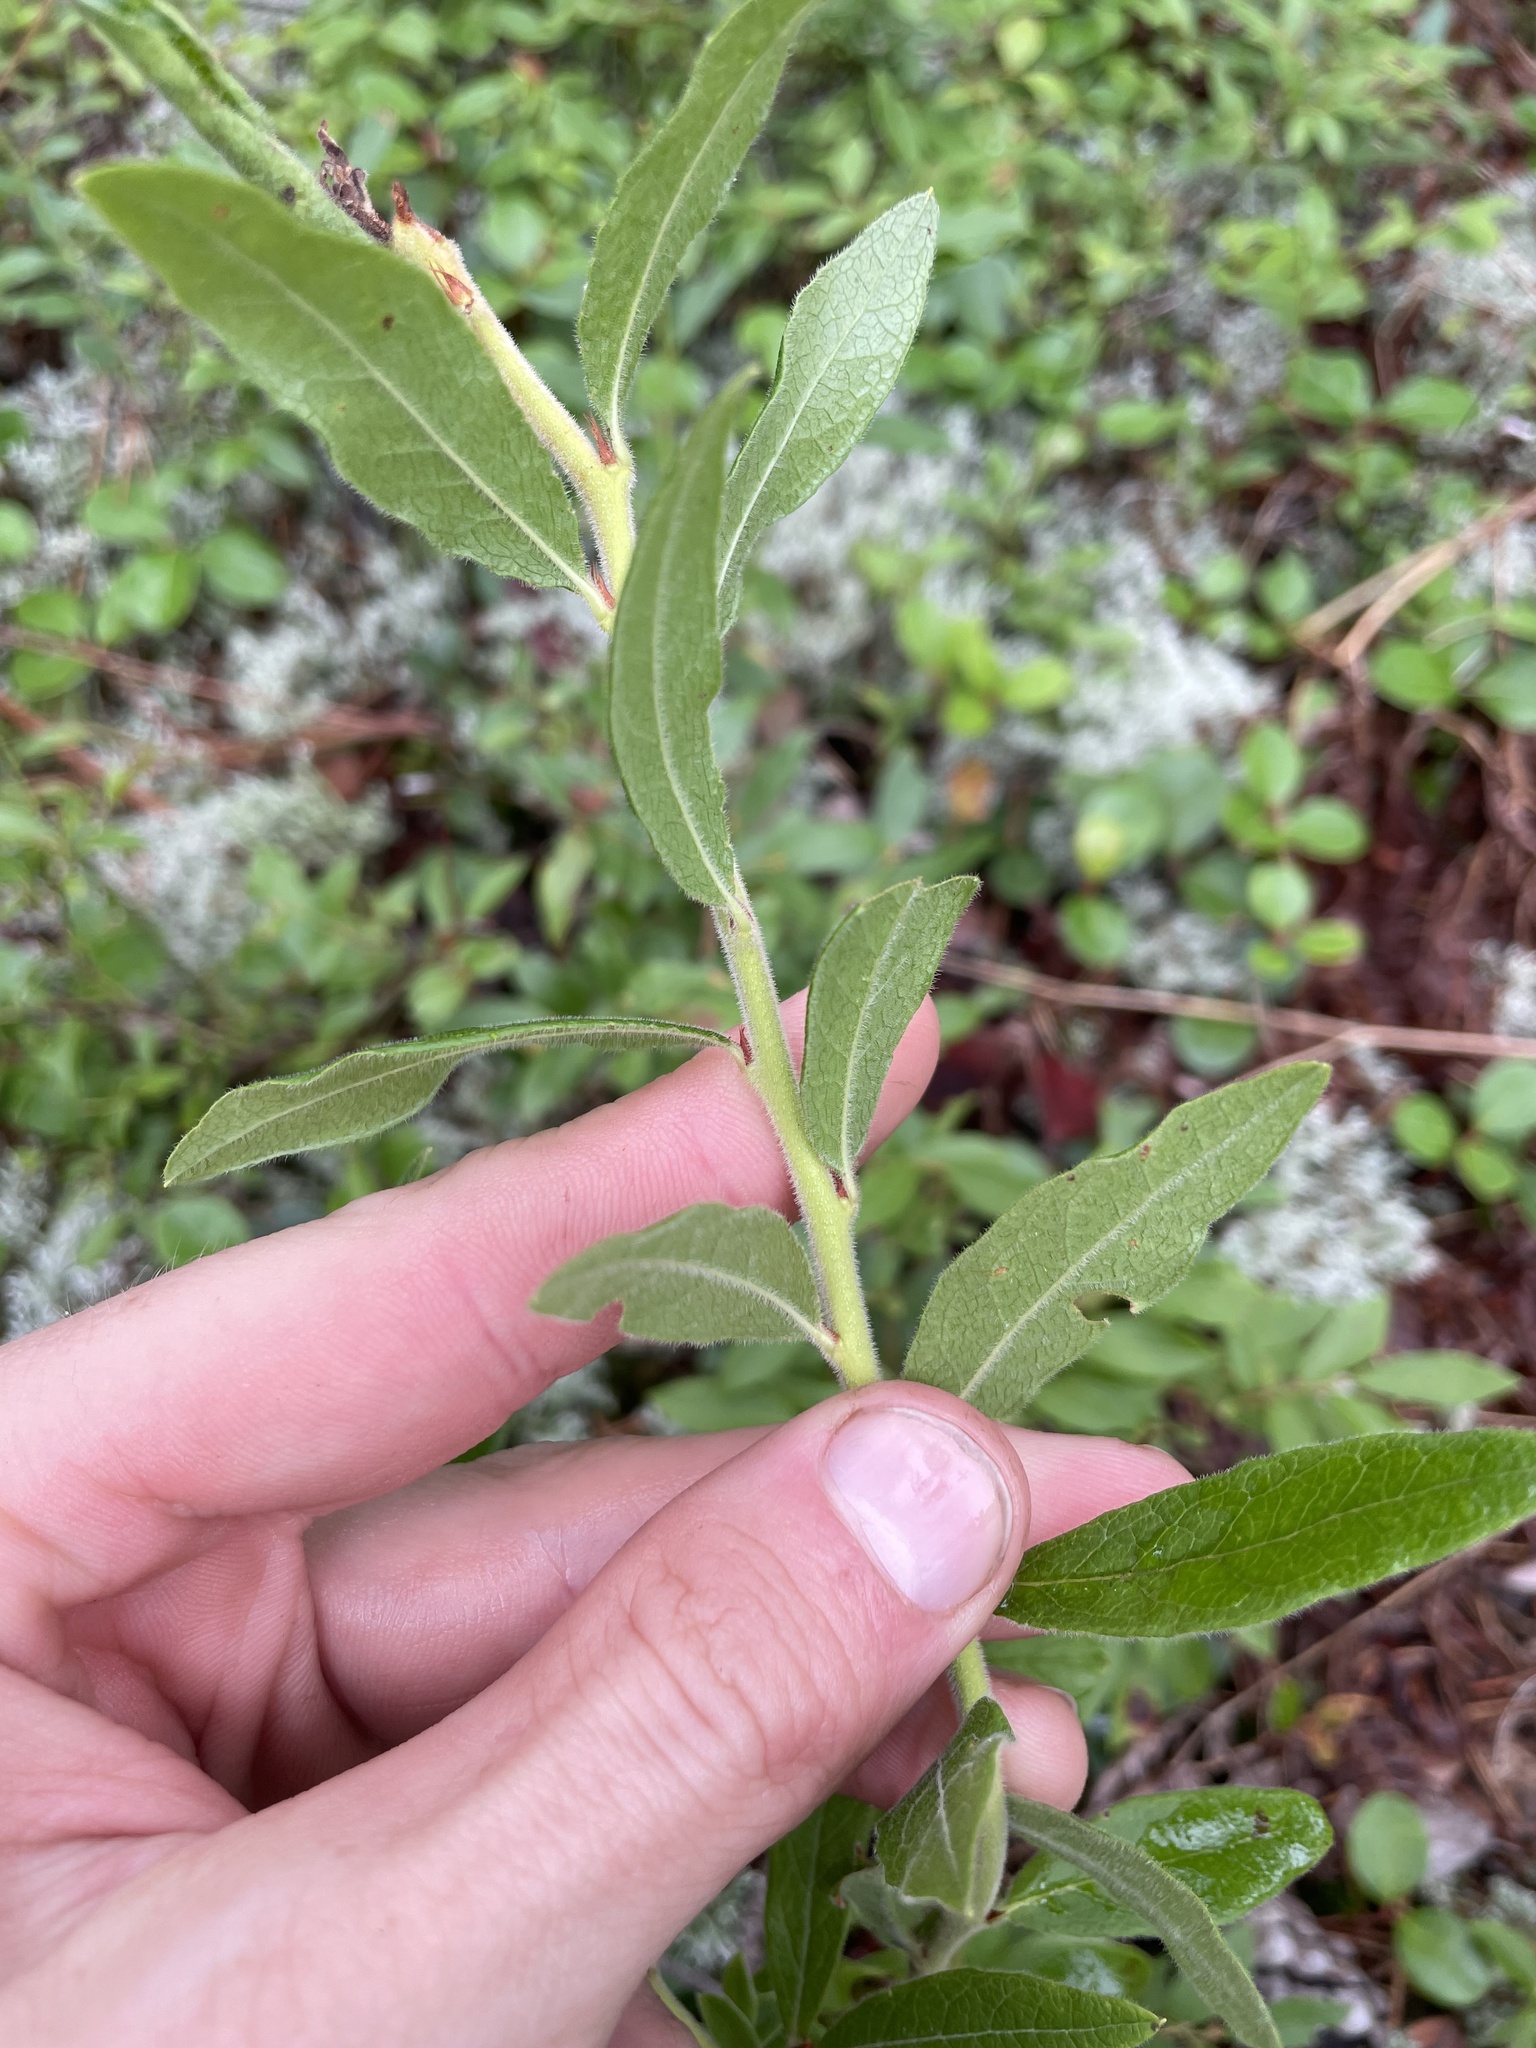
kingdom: Plantae
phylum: Tracheophyta
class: Magnoliopsida
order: Ericales
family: Ericaceae
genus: Vaccinium
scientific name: Vaccinium myrtilloides
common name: Canada blueberry
